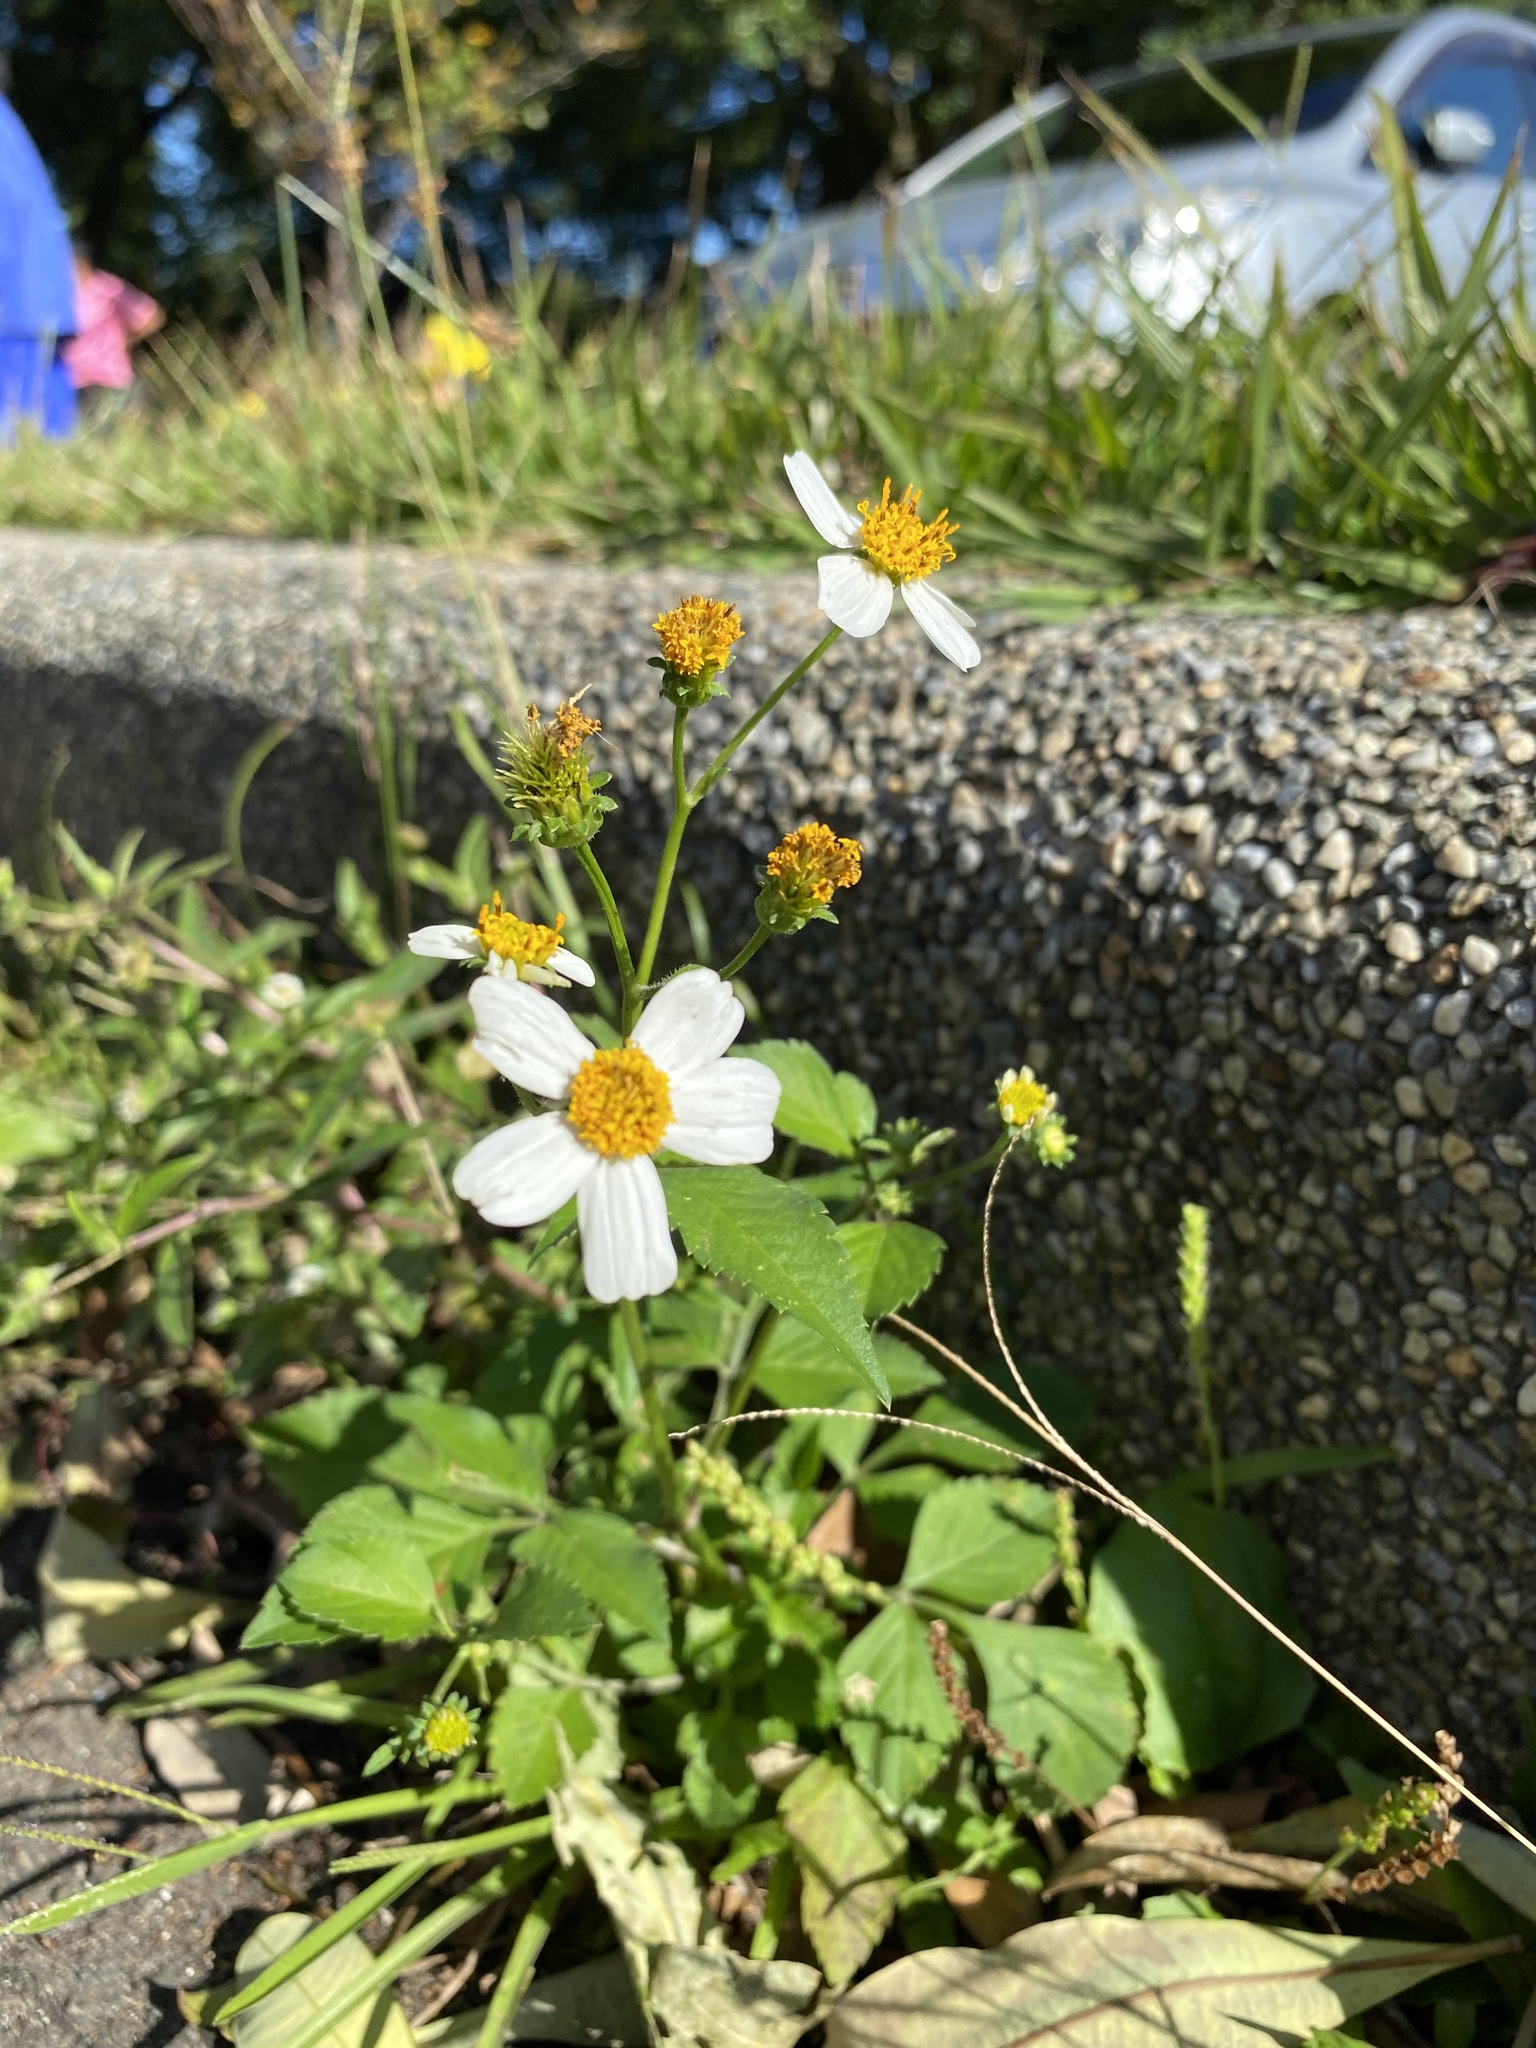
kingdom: Plantae
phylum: Tracheophyta
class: Magnoliopsida
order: Asterales
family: Asteraceae
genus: Bidens
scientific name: Bidens alba
